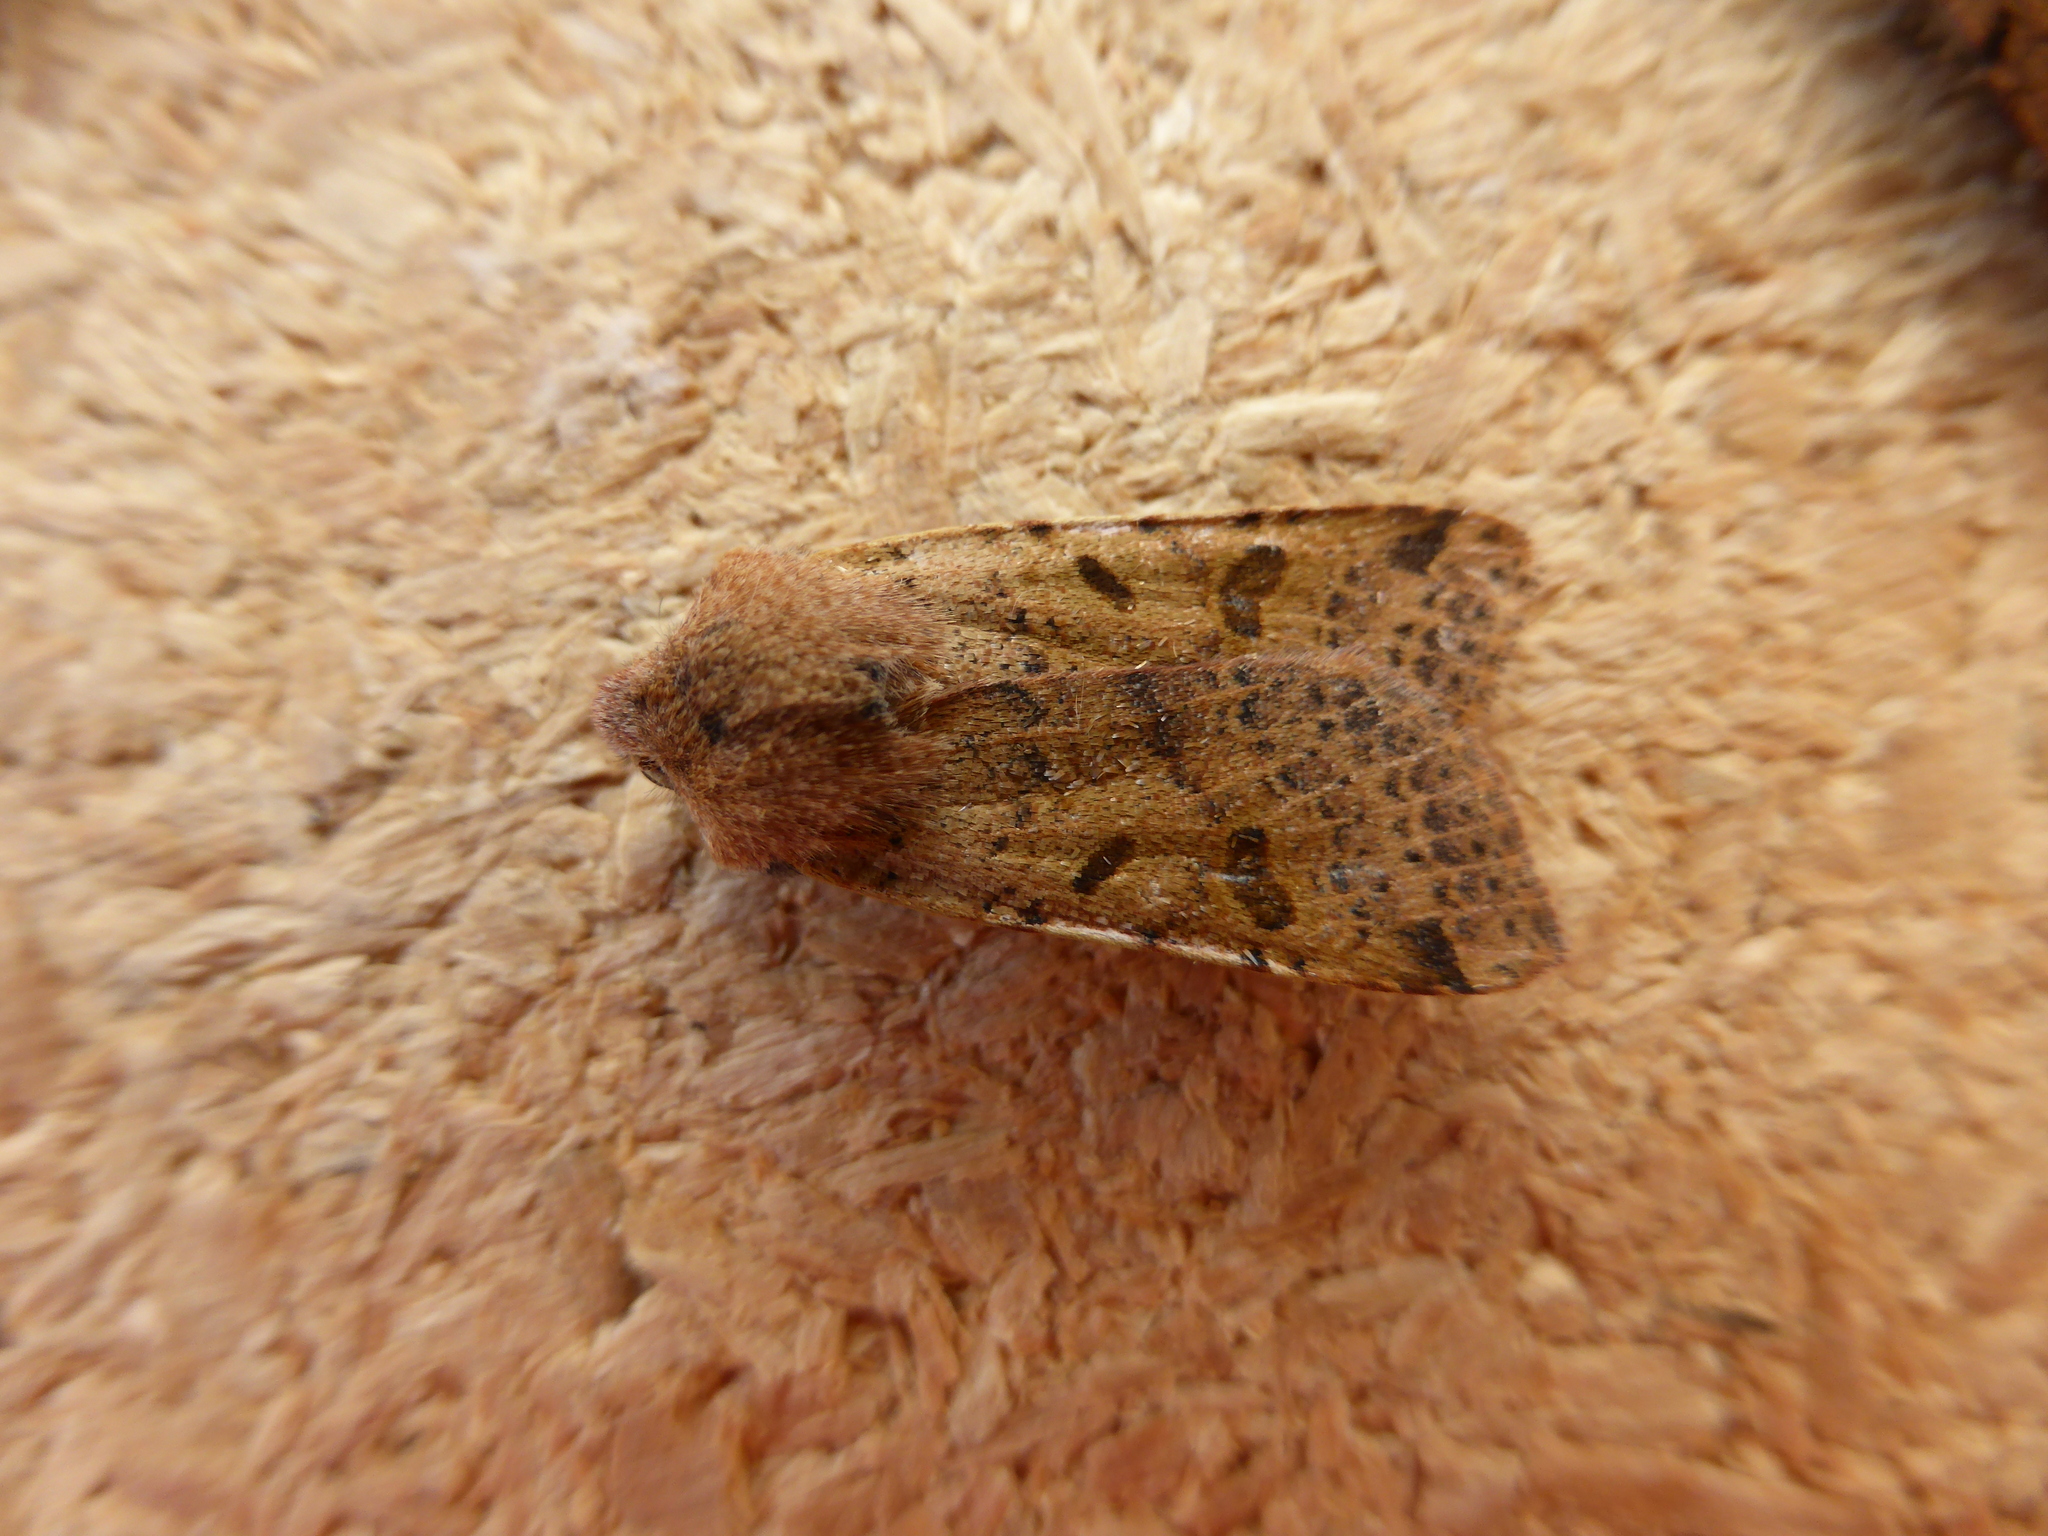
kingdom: Animalia
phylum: Arthropoda
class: Insecta
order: Lepidoptera
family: Noctuidae
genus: Agrochola
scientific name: Agrochola lychnidis
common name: Beaded chestnut
